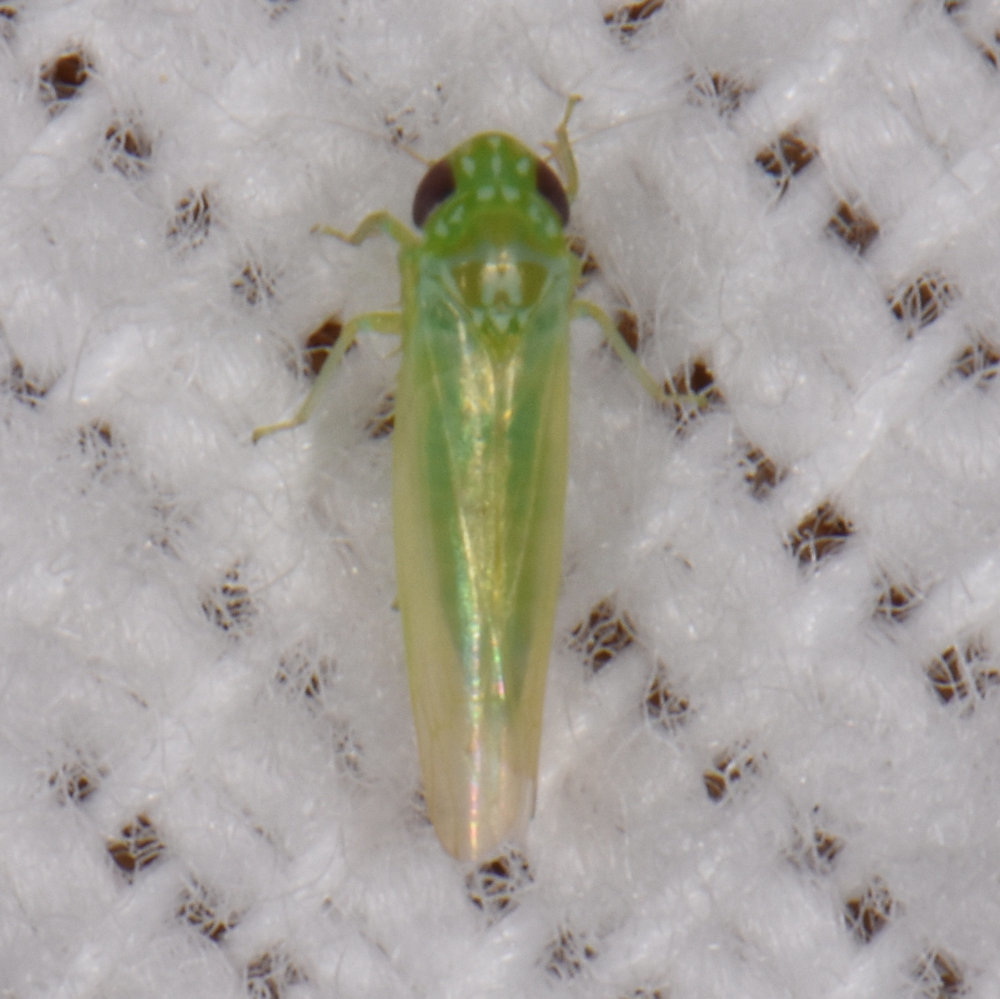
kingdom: Animalia
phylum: Arthropoda
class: Insecta
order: Hemiptera
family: Cicadellidae
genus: Empoasca
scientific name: Empoasca fabae
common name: Potato leafhopper
